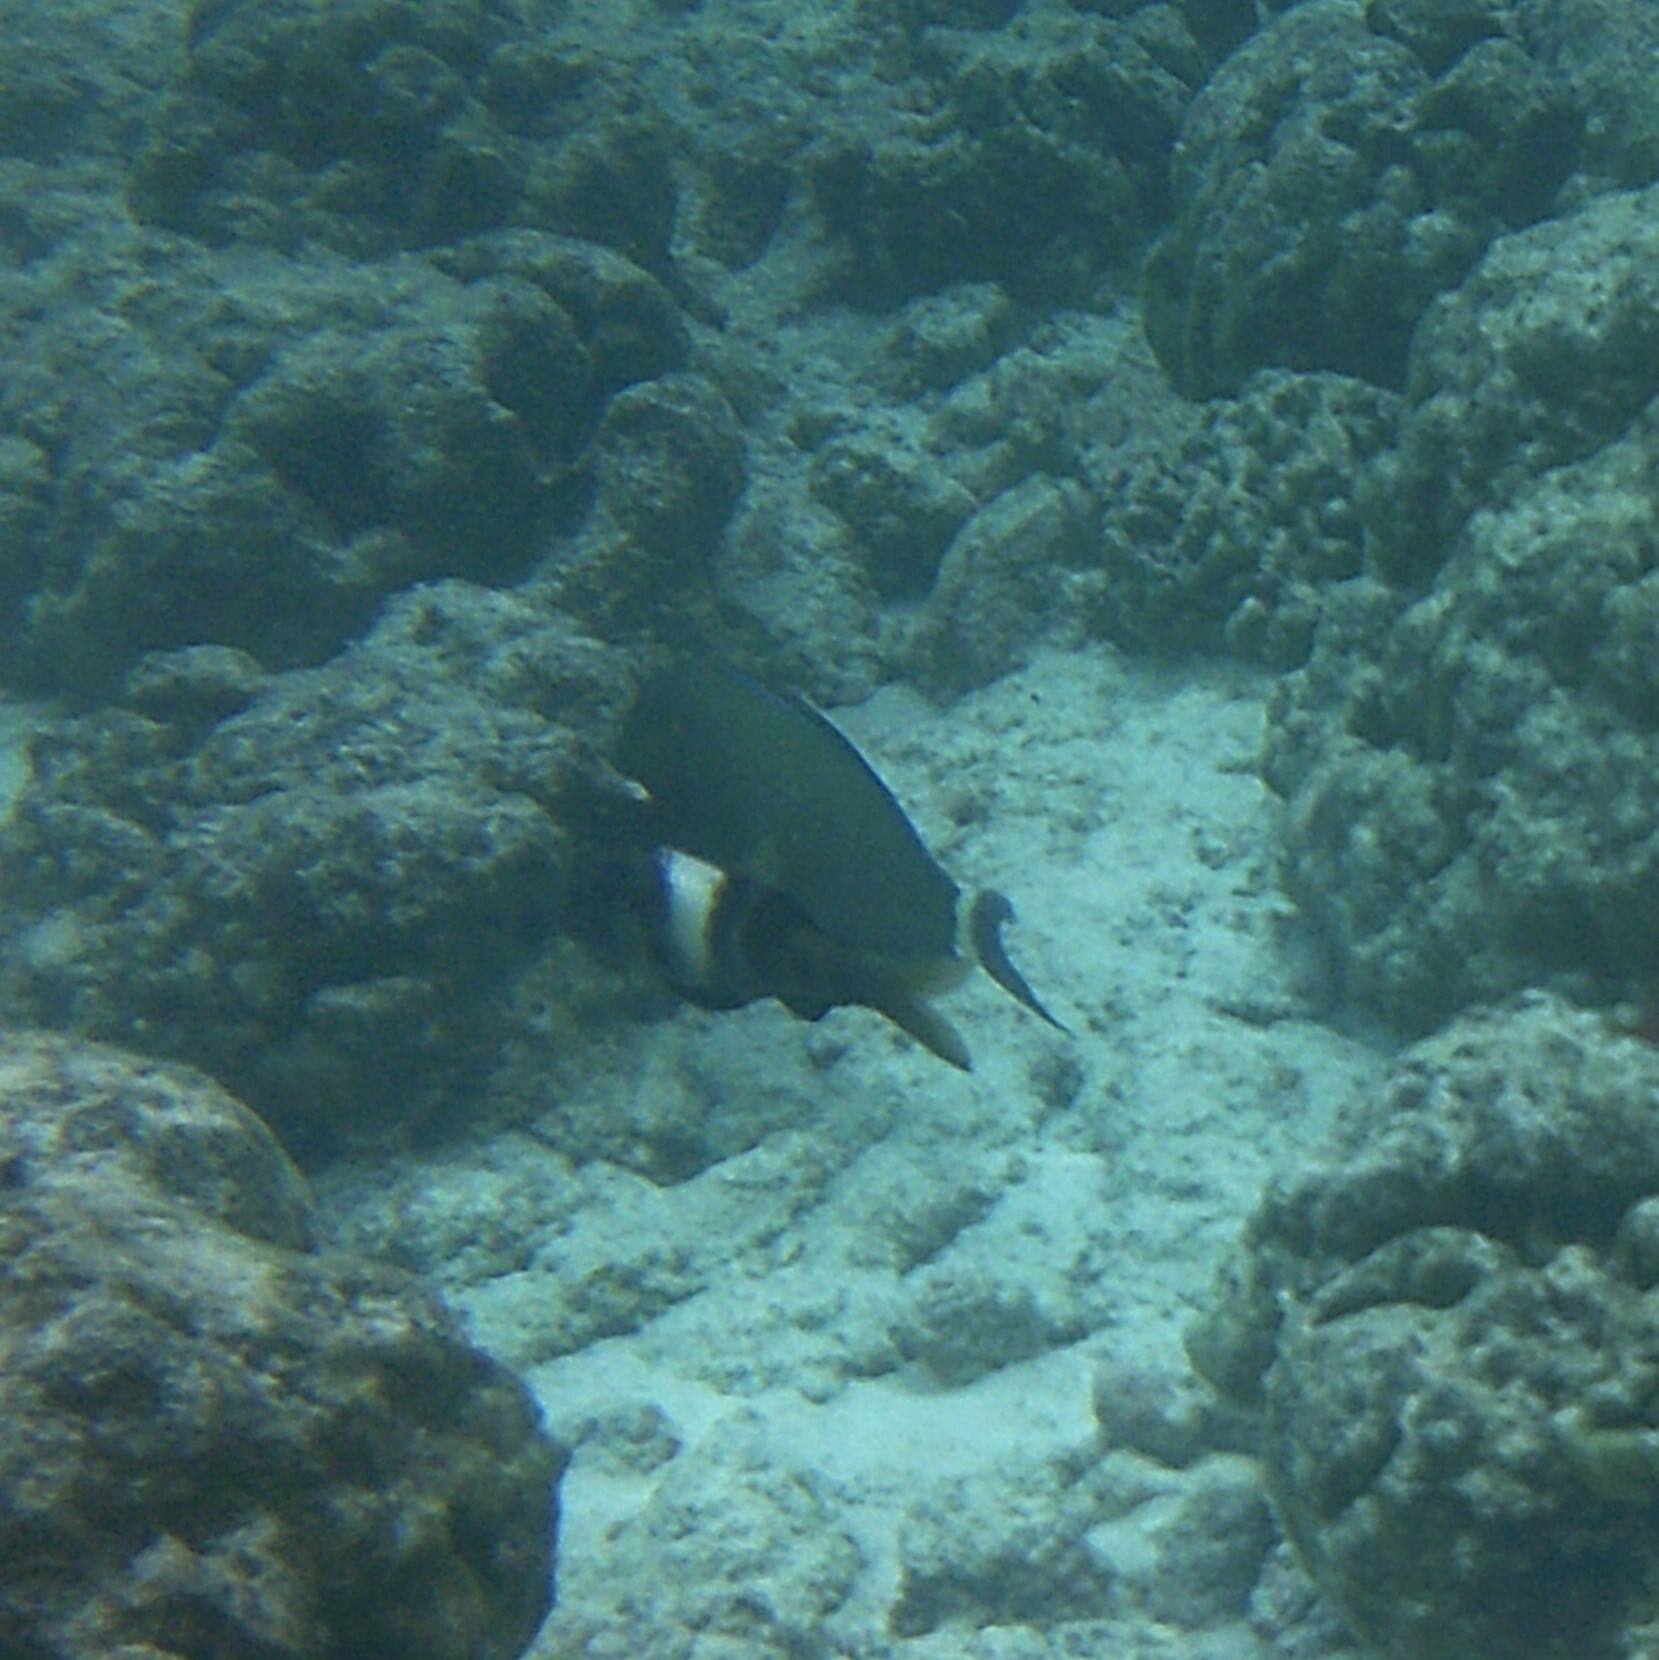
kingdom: Animalia
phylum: Chordata
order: Perciformes
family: Mullidae
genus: Parupeneus
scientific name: Parupeneus multifasciatus
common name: Manybar goatfish
